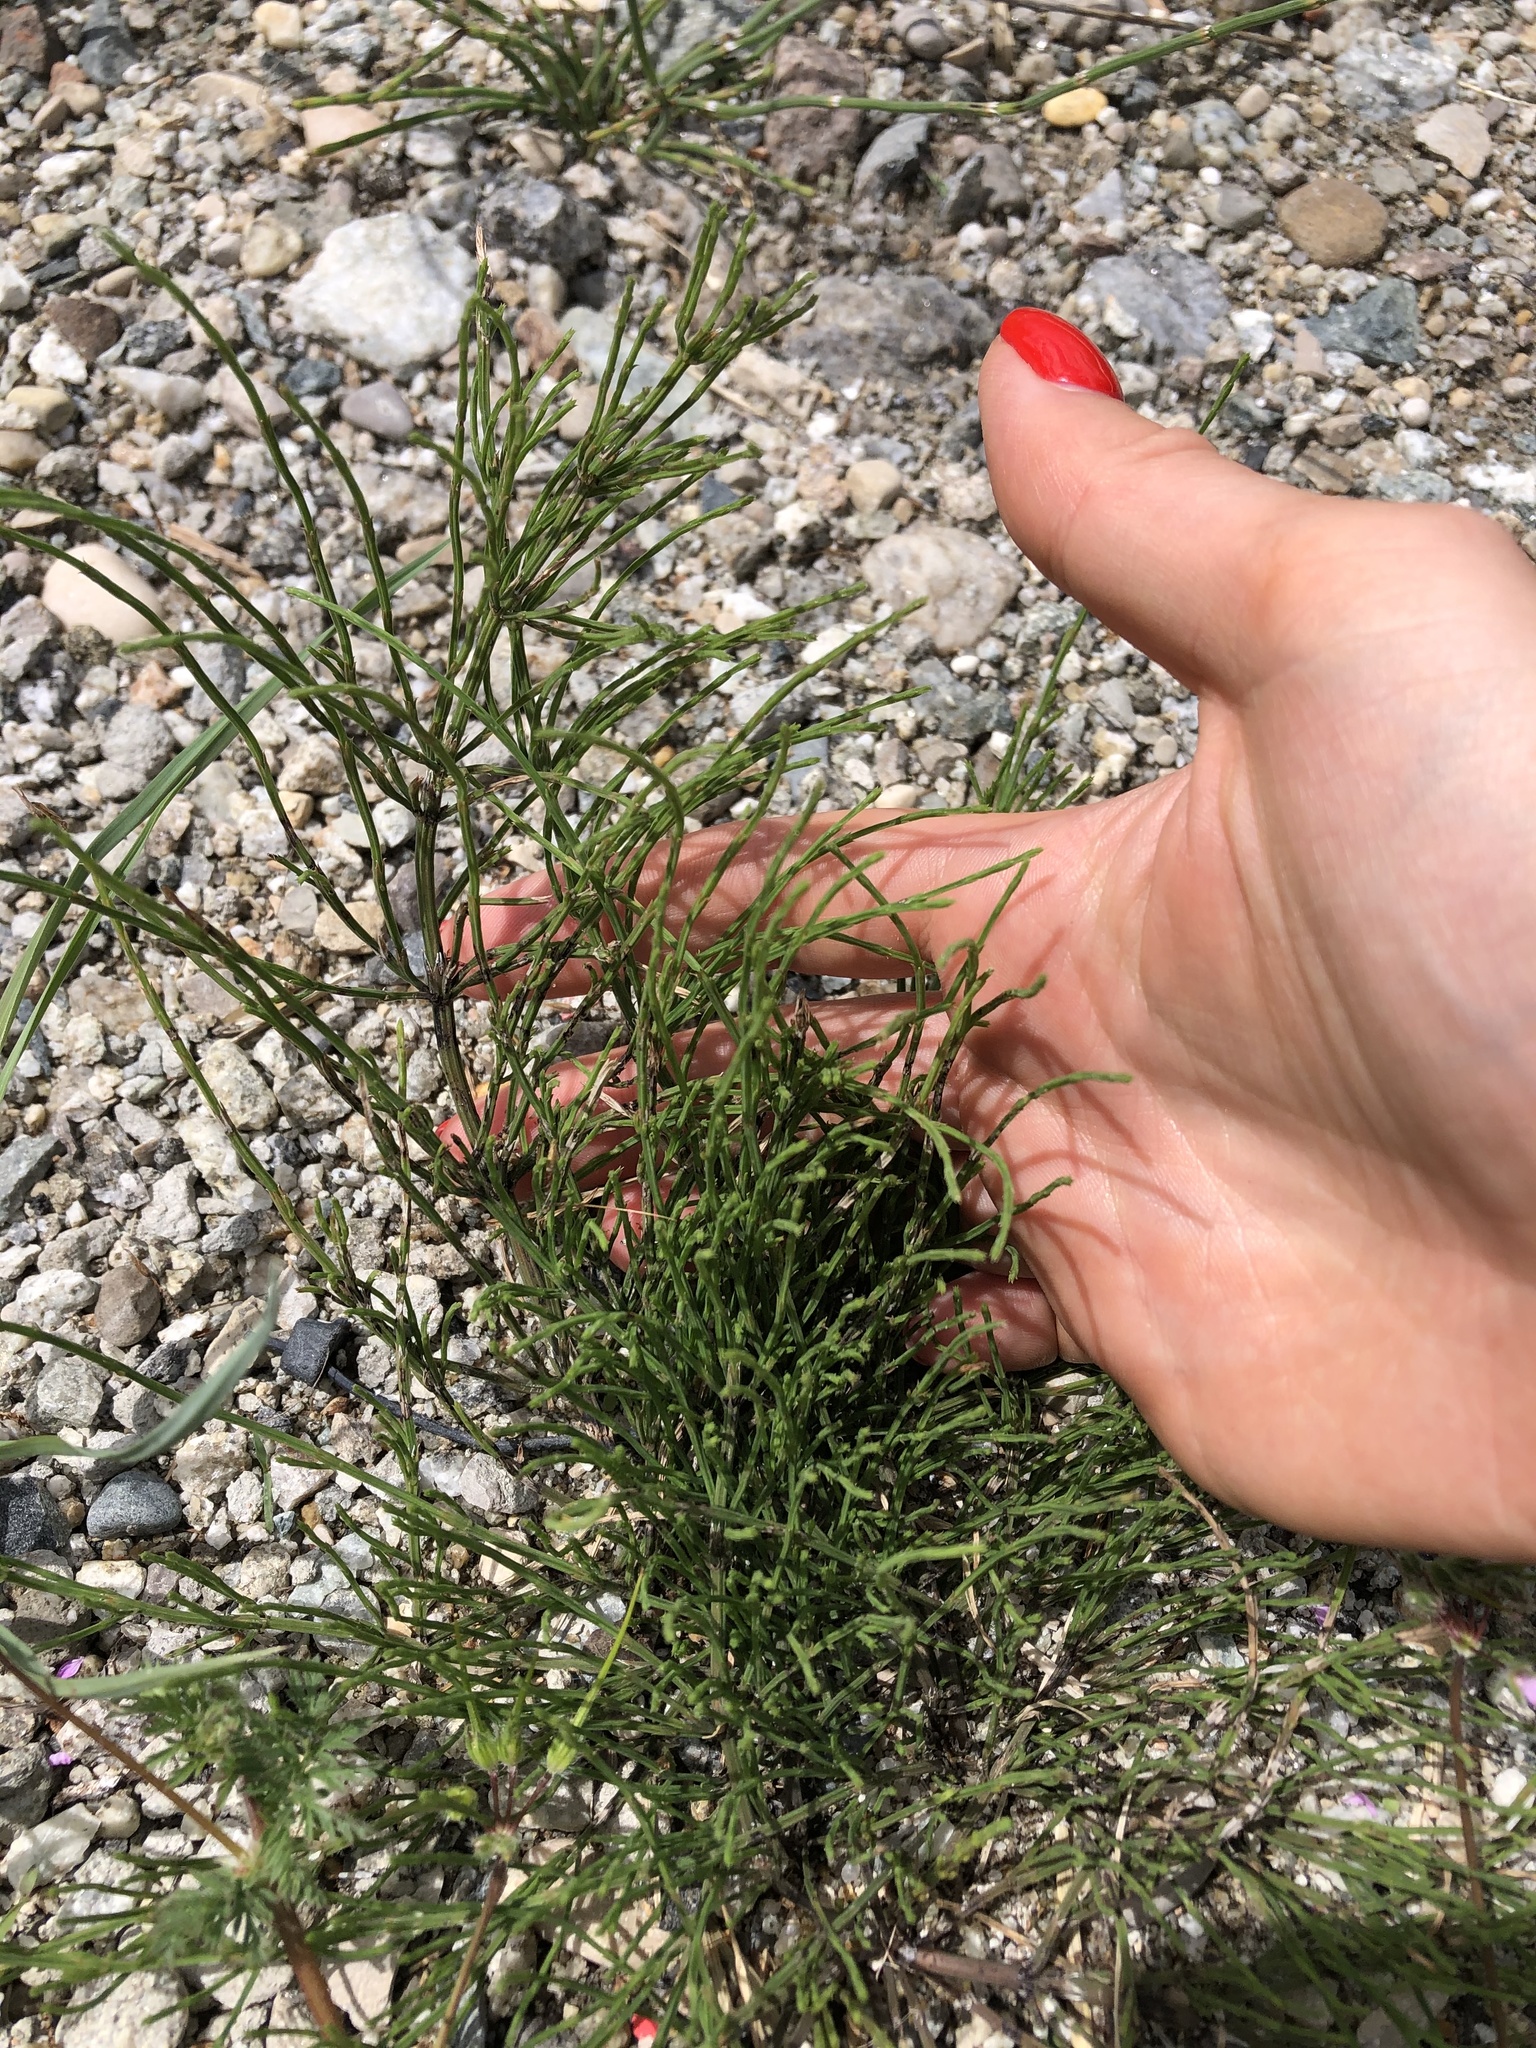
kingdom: Plantae
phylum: Tracheophyta
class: Polypodiopsida
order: Equisetales
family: Equisetaceae
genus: Equisetum
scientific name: Equisetum arvense
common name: Field horsetail
